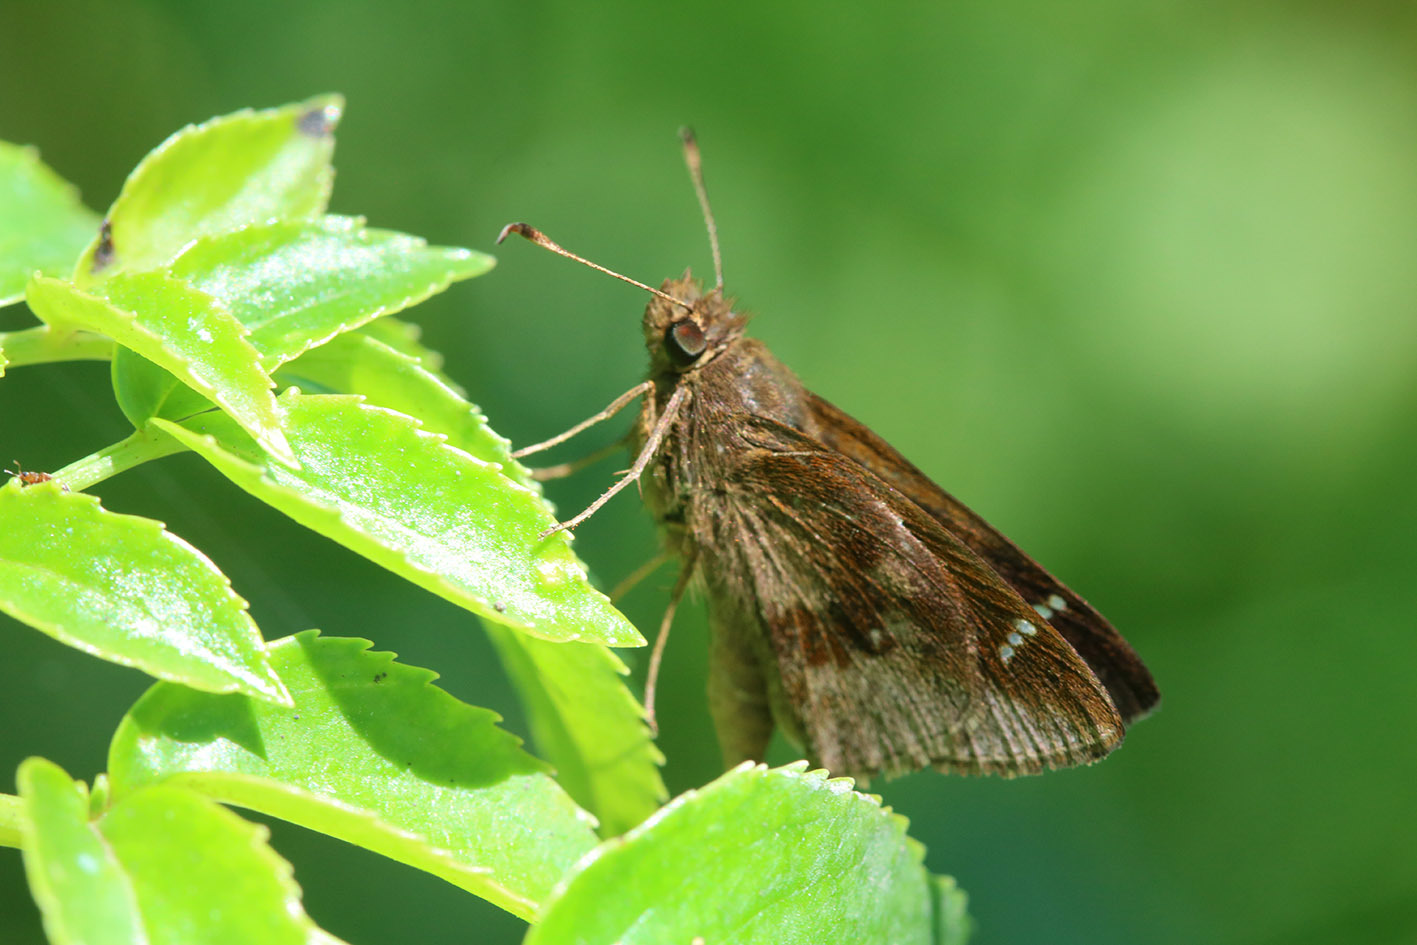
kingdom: Animalia
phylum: Arthropoda
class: Insecta
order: Lepidoptera
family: Hesperiidae
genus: Cymaenes
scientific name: Cymaenes
